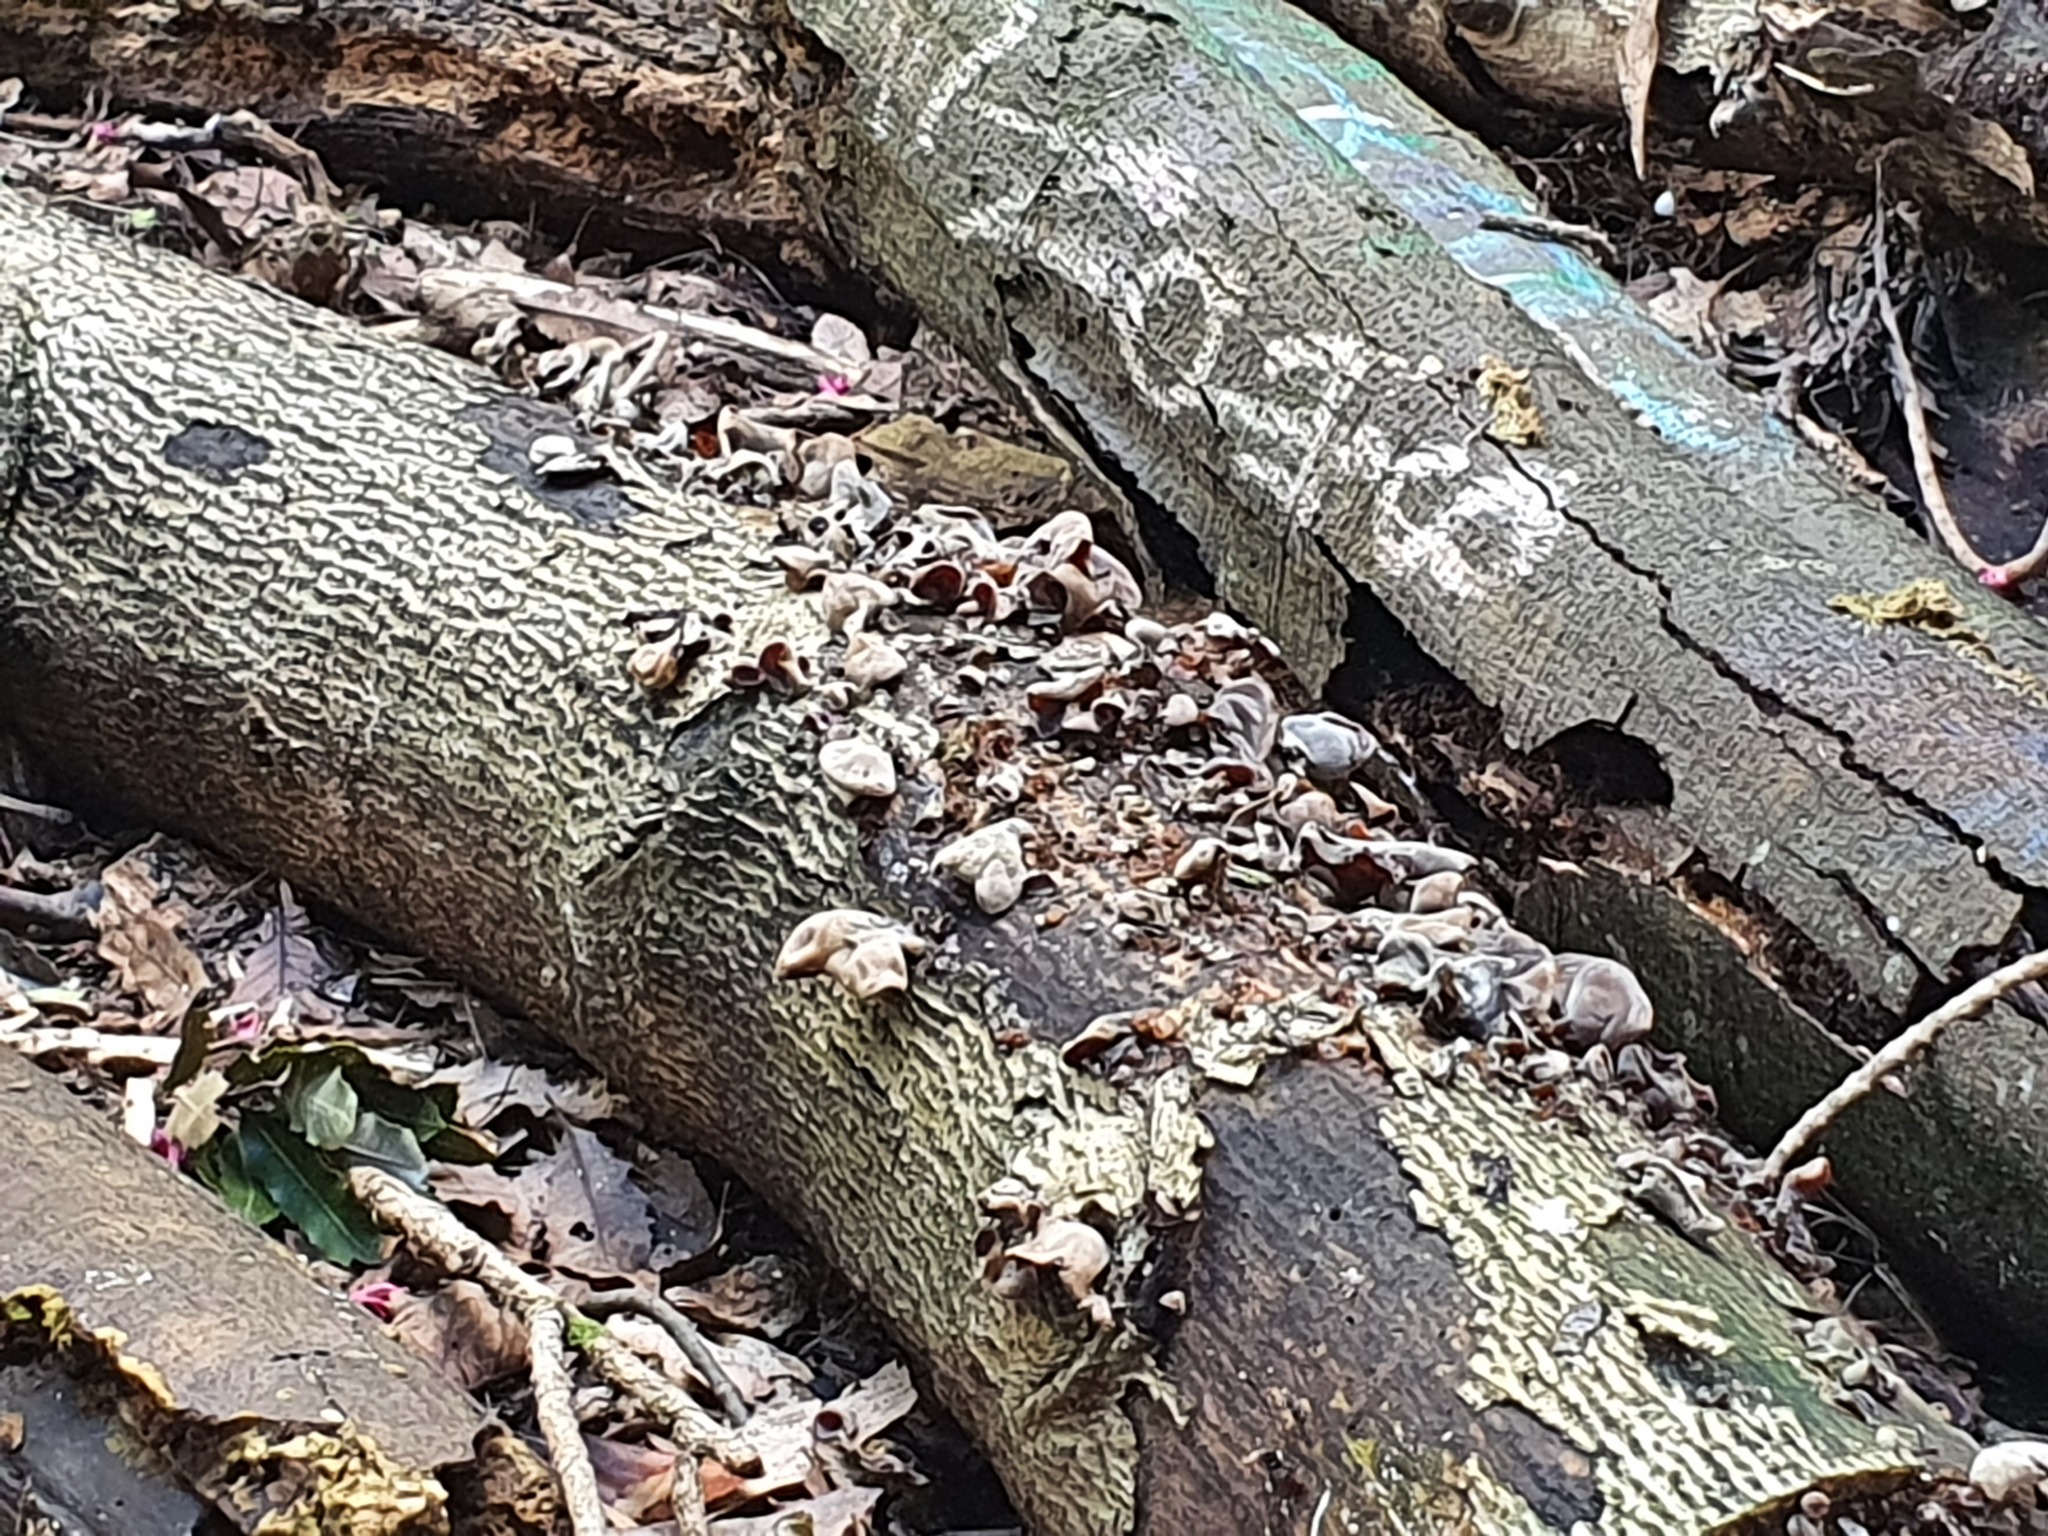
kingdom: Fungi
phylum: Basidiomycota
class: Agaricomycetes
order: Auriculariales
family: Auriculariaceae
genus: Auricularia
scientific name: Auricularia cornea
